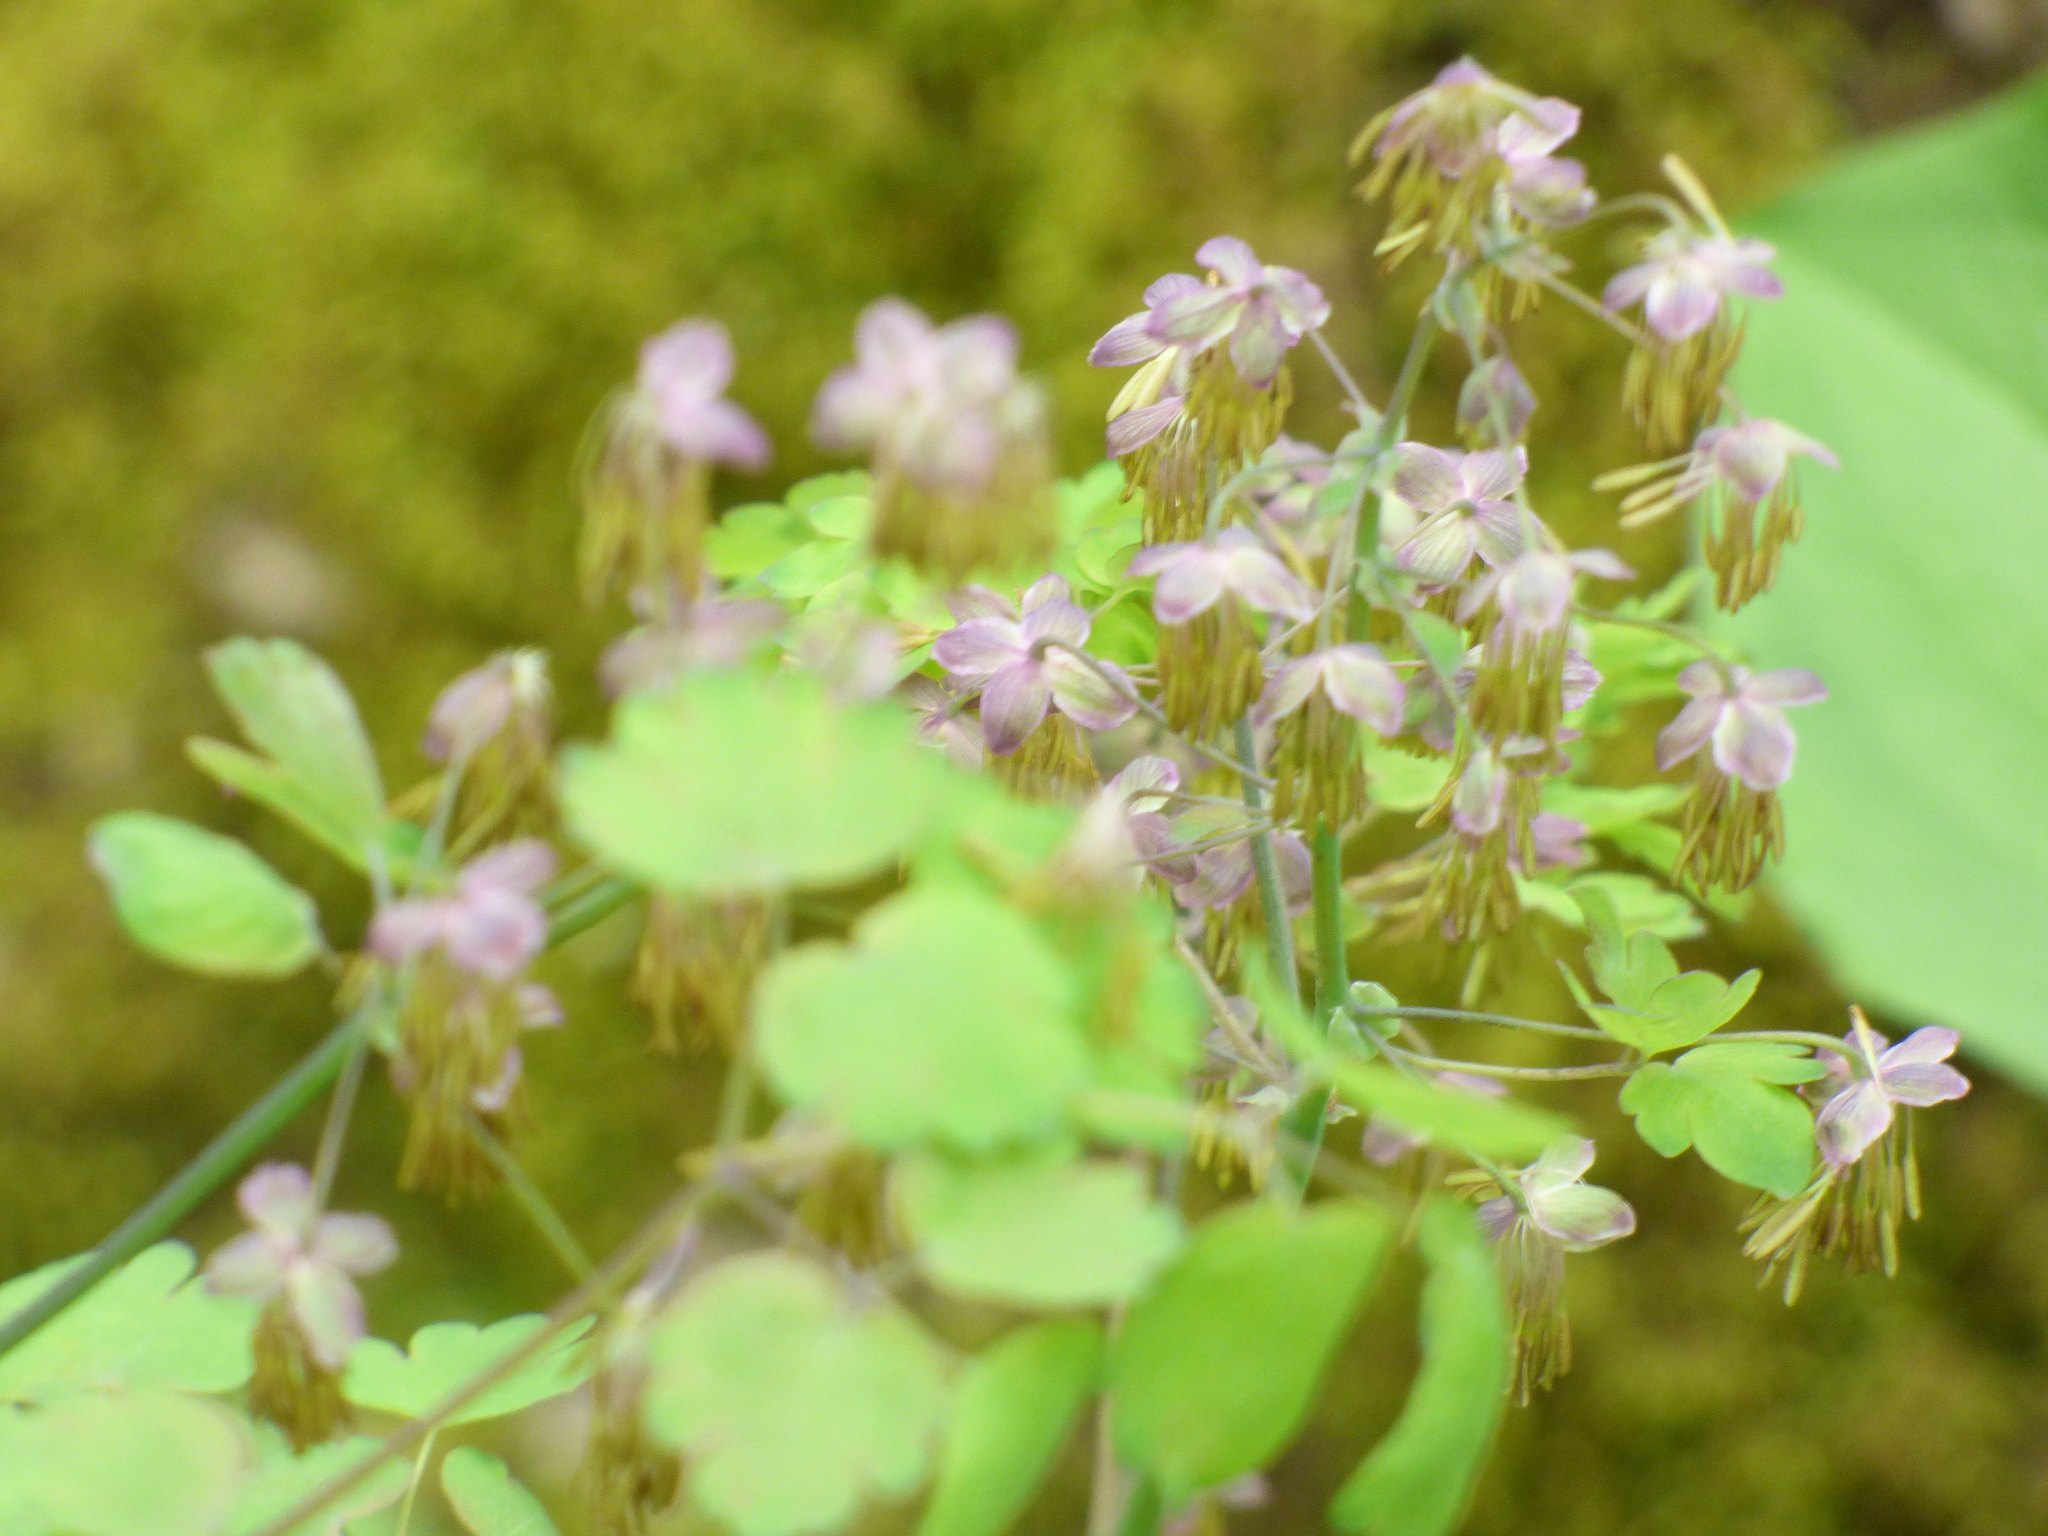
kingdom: Plantae
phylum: Tracheophyta
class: Magnoliopsida
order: Ranunculales
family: Ranunculaceae
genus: Thalictrum
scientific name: Thalictrum dioicum
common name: Early meadow-rue
